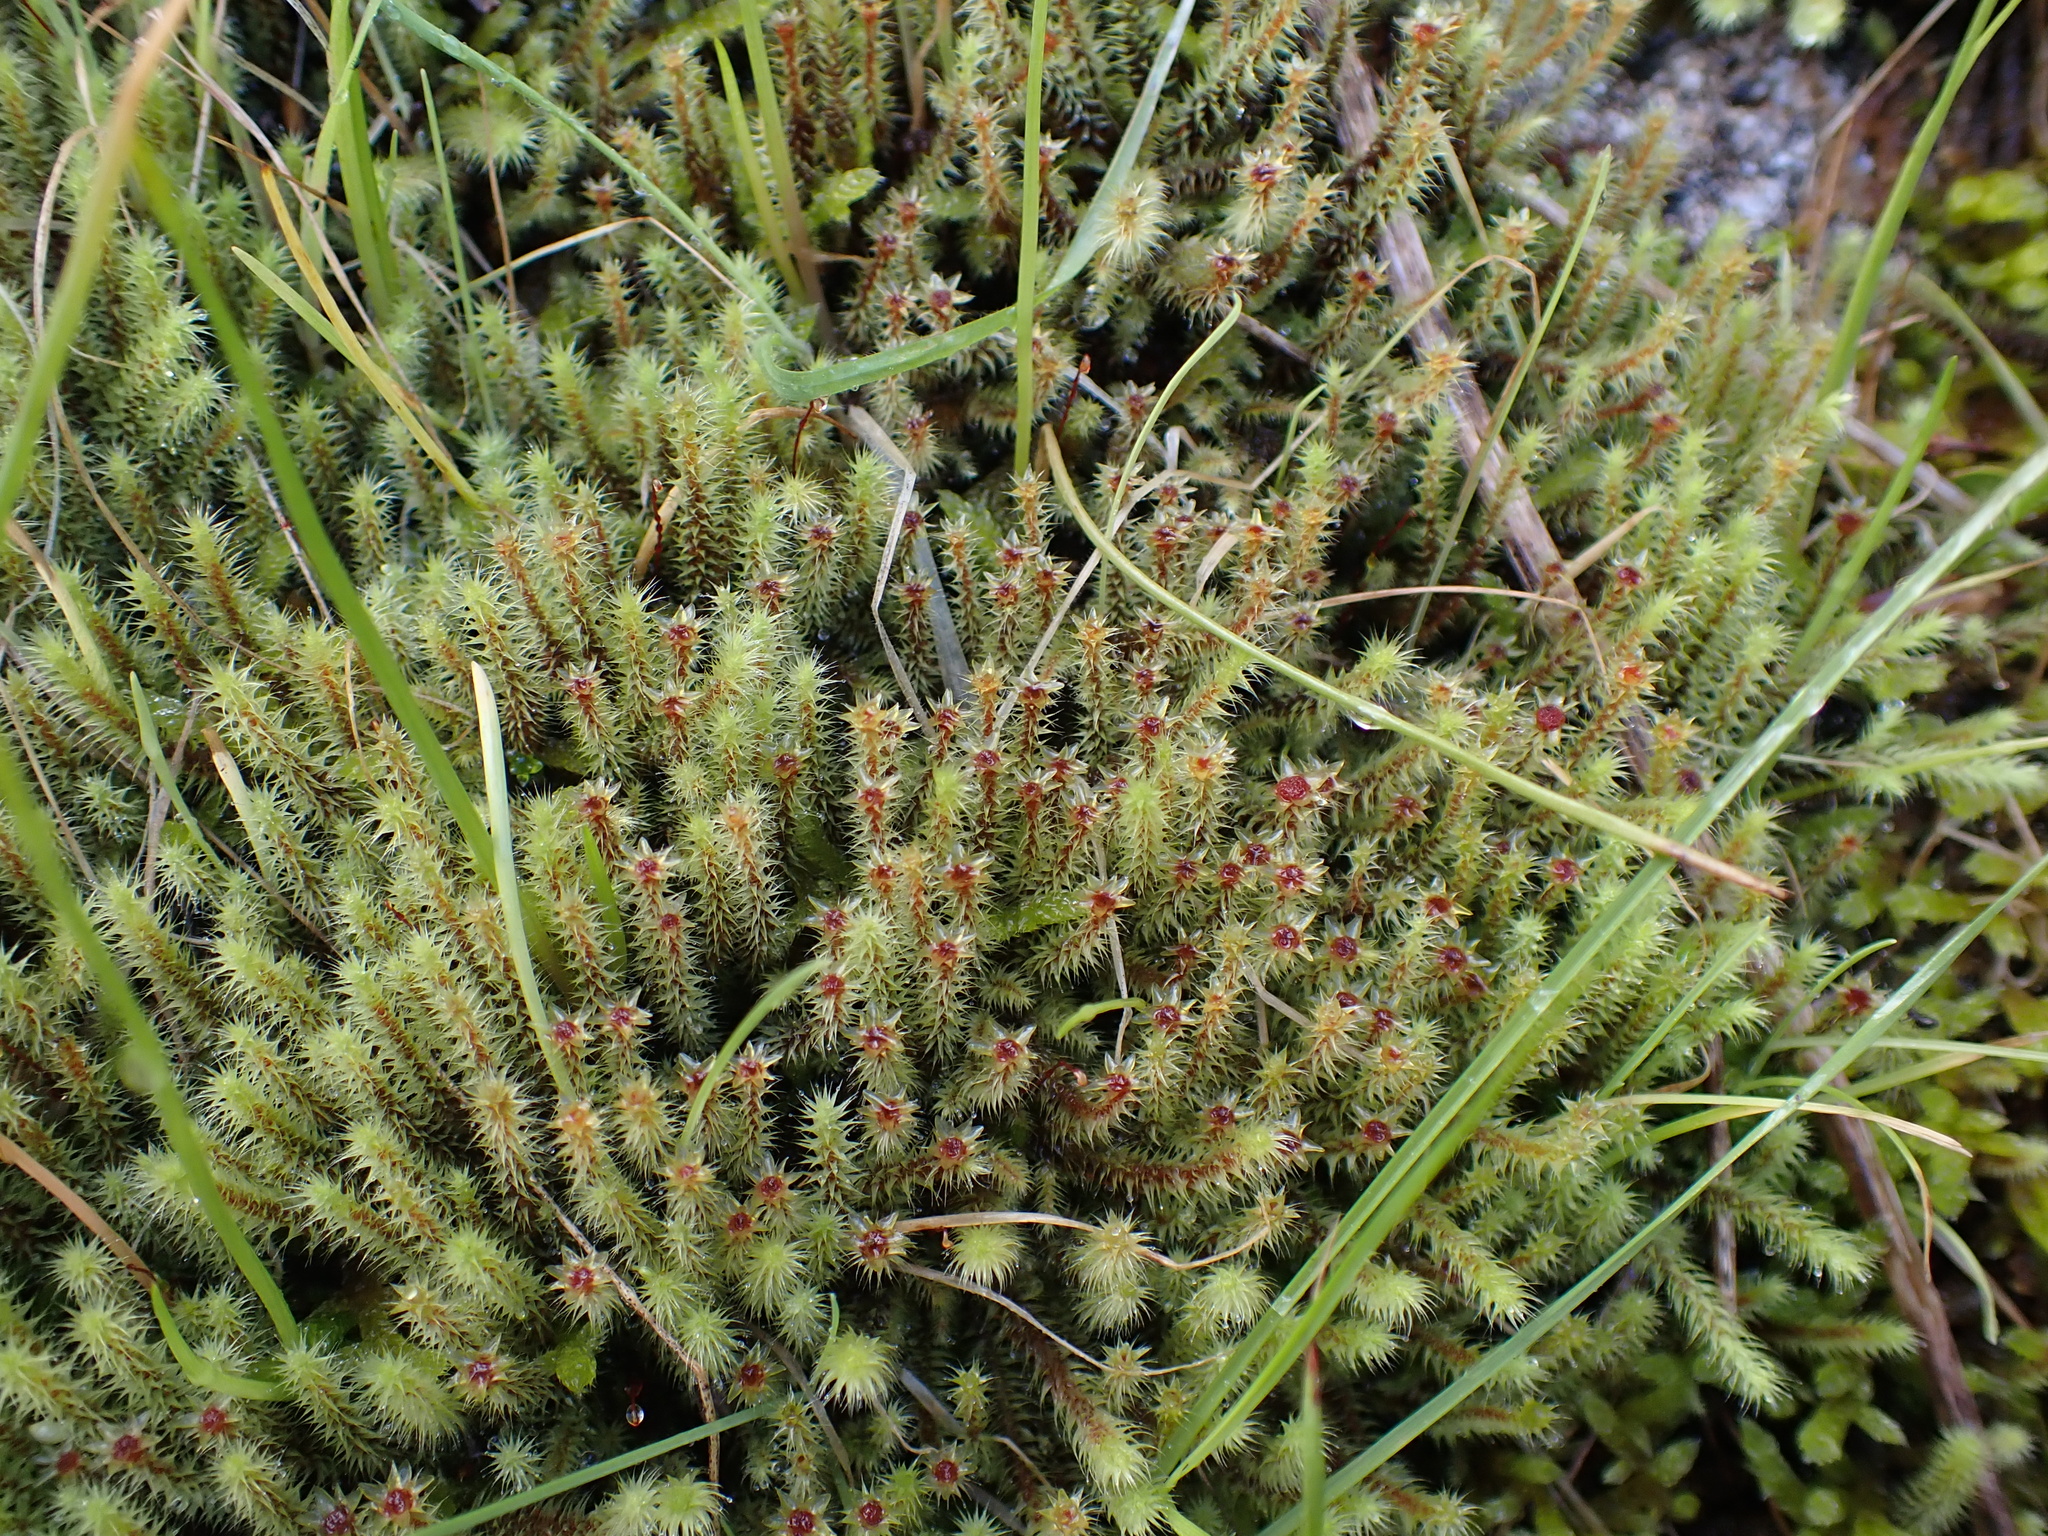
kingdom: Plantae
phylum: Bryophyta
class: Bryopsida
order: Bartramiales
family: Bartramiaceae
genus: Breutelia
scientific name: Breutelia affinis
